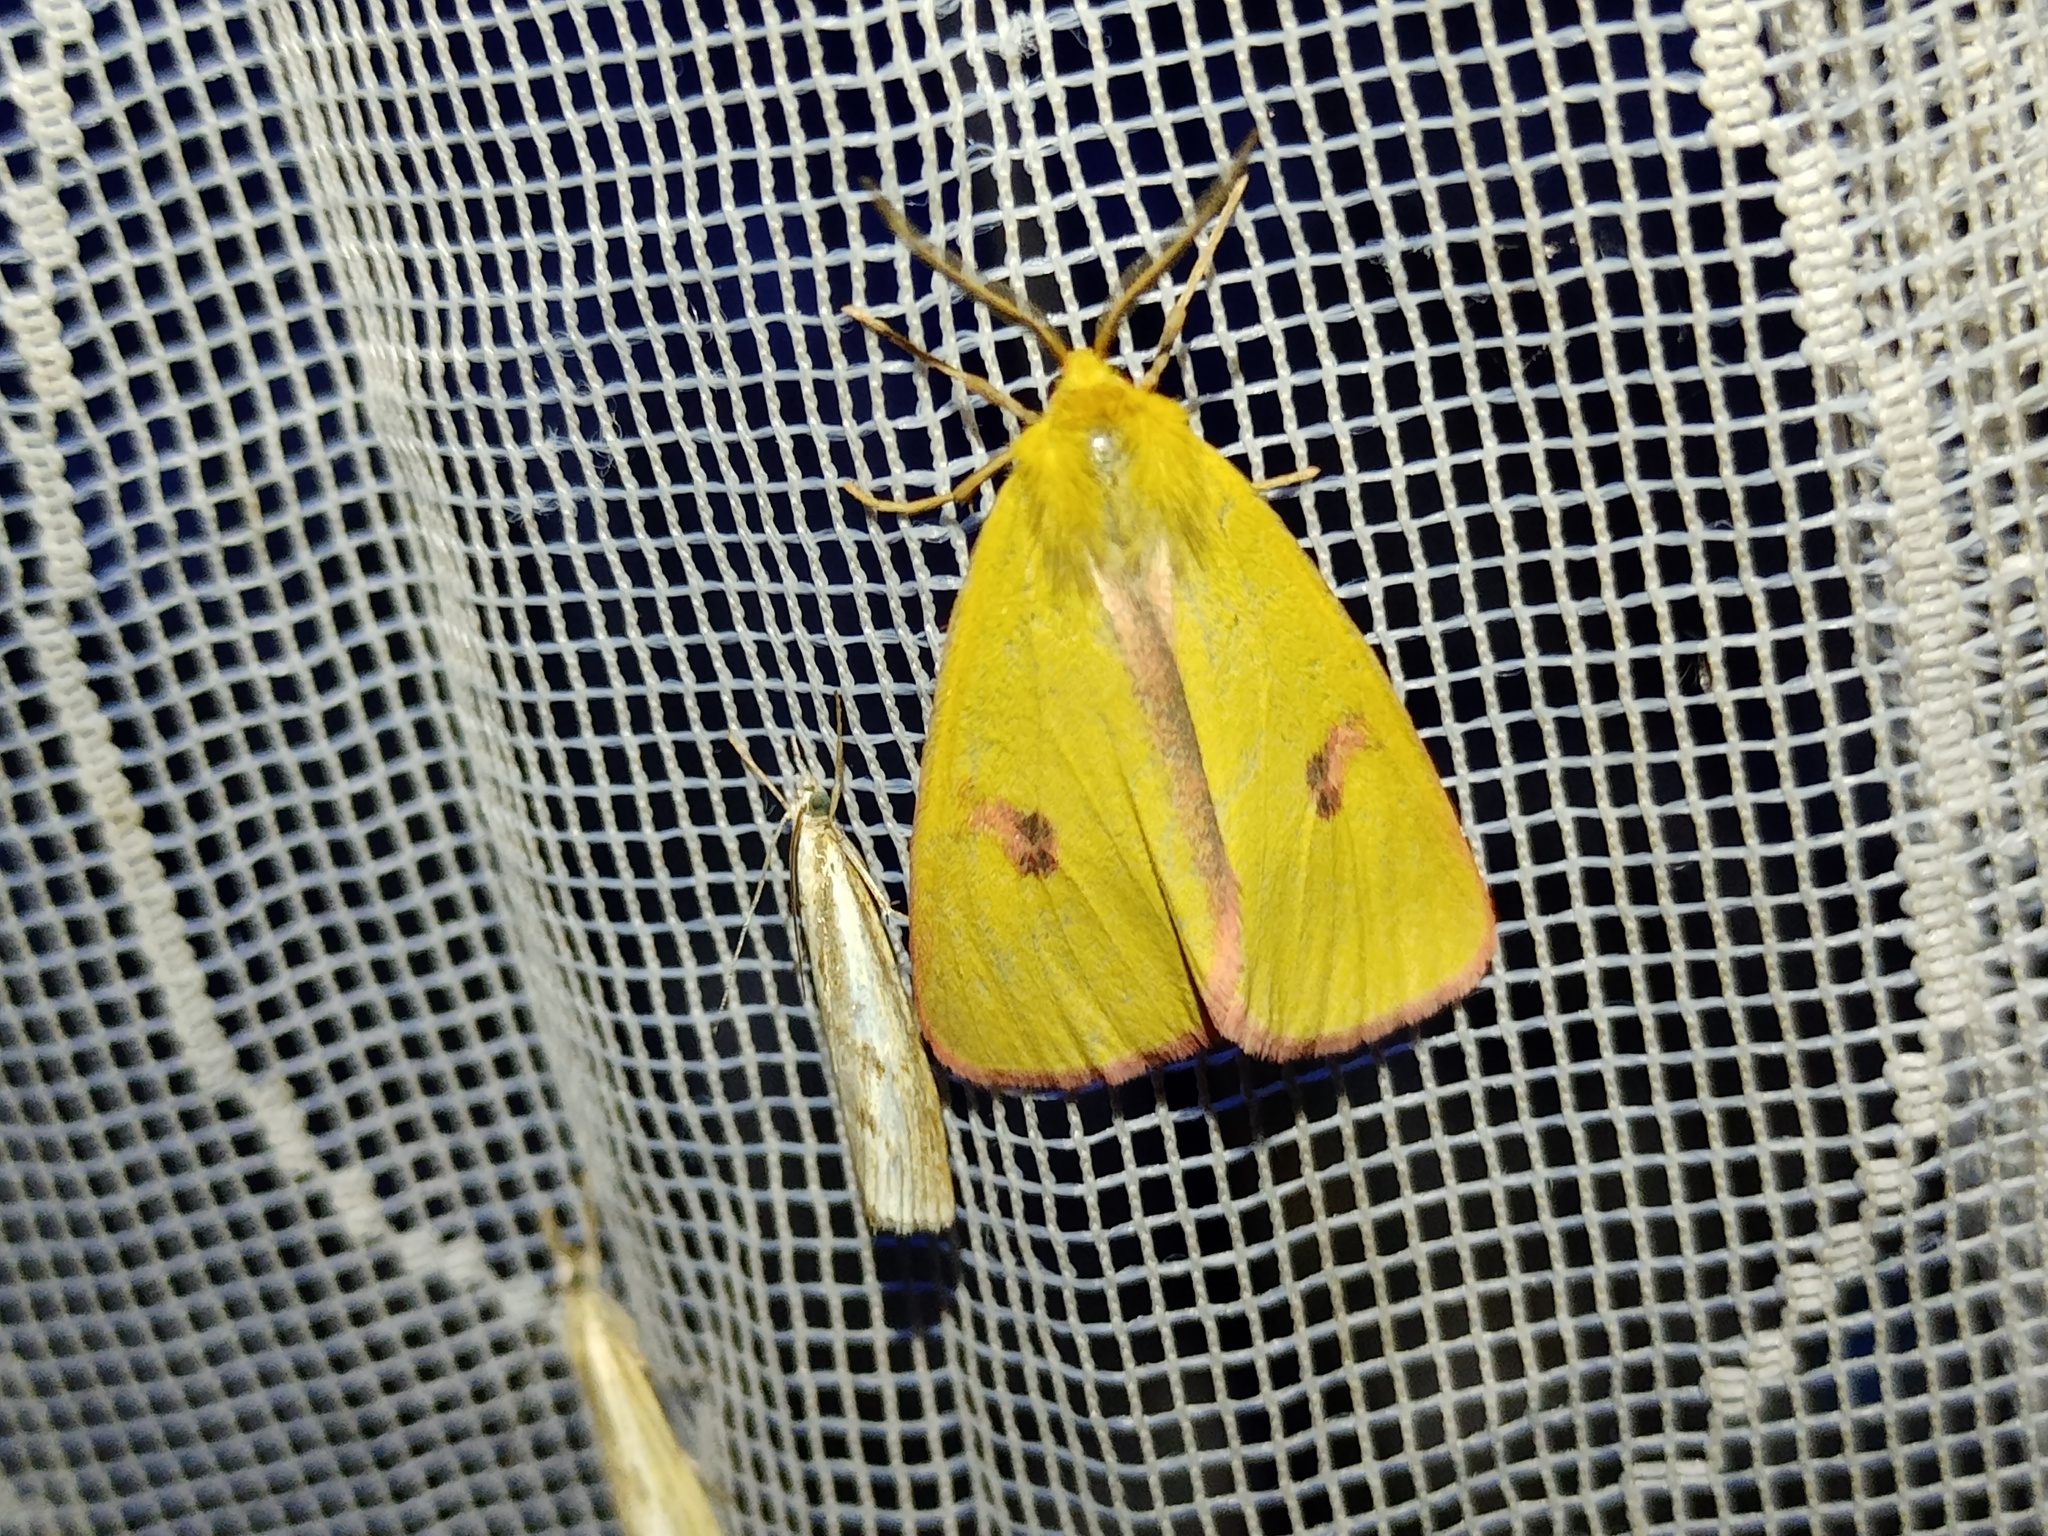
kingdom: Animalia
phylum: Arthropoda
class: Insecta
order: Lepidoptera
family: Erebidae
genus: Diacrisia
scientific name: Diacrisia sannio
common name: Clouded buff
